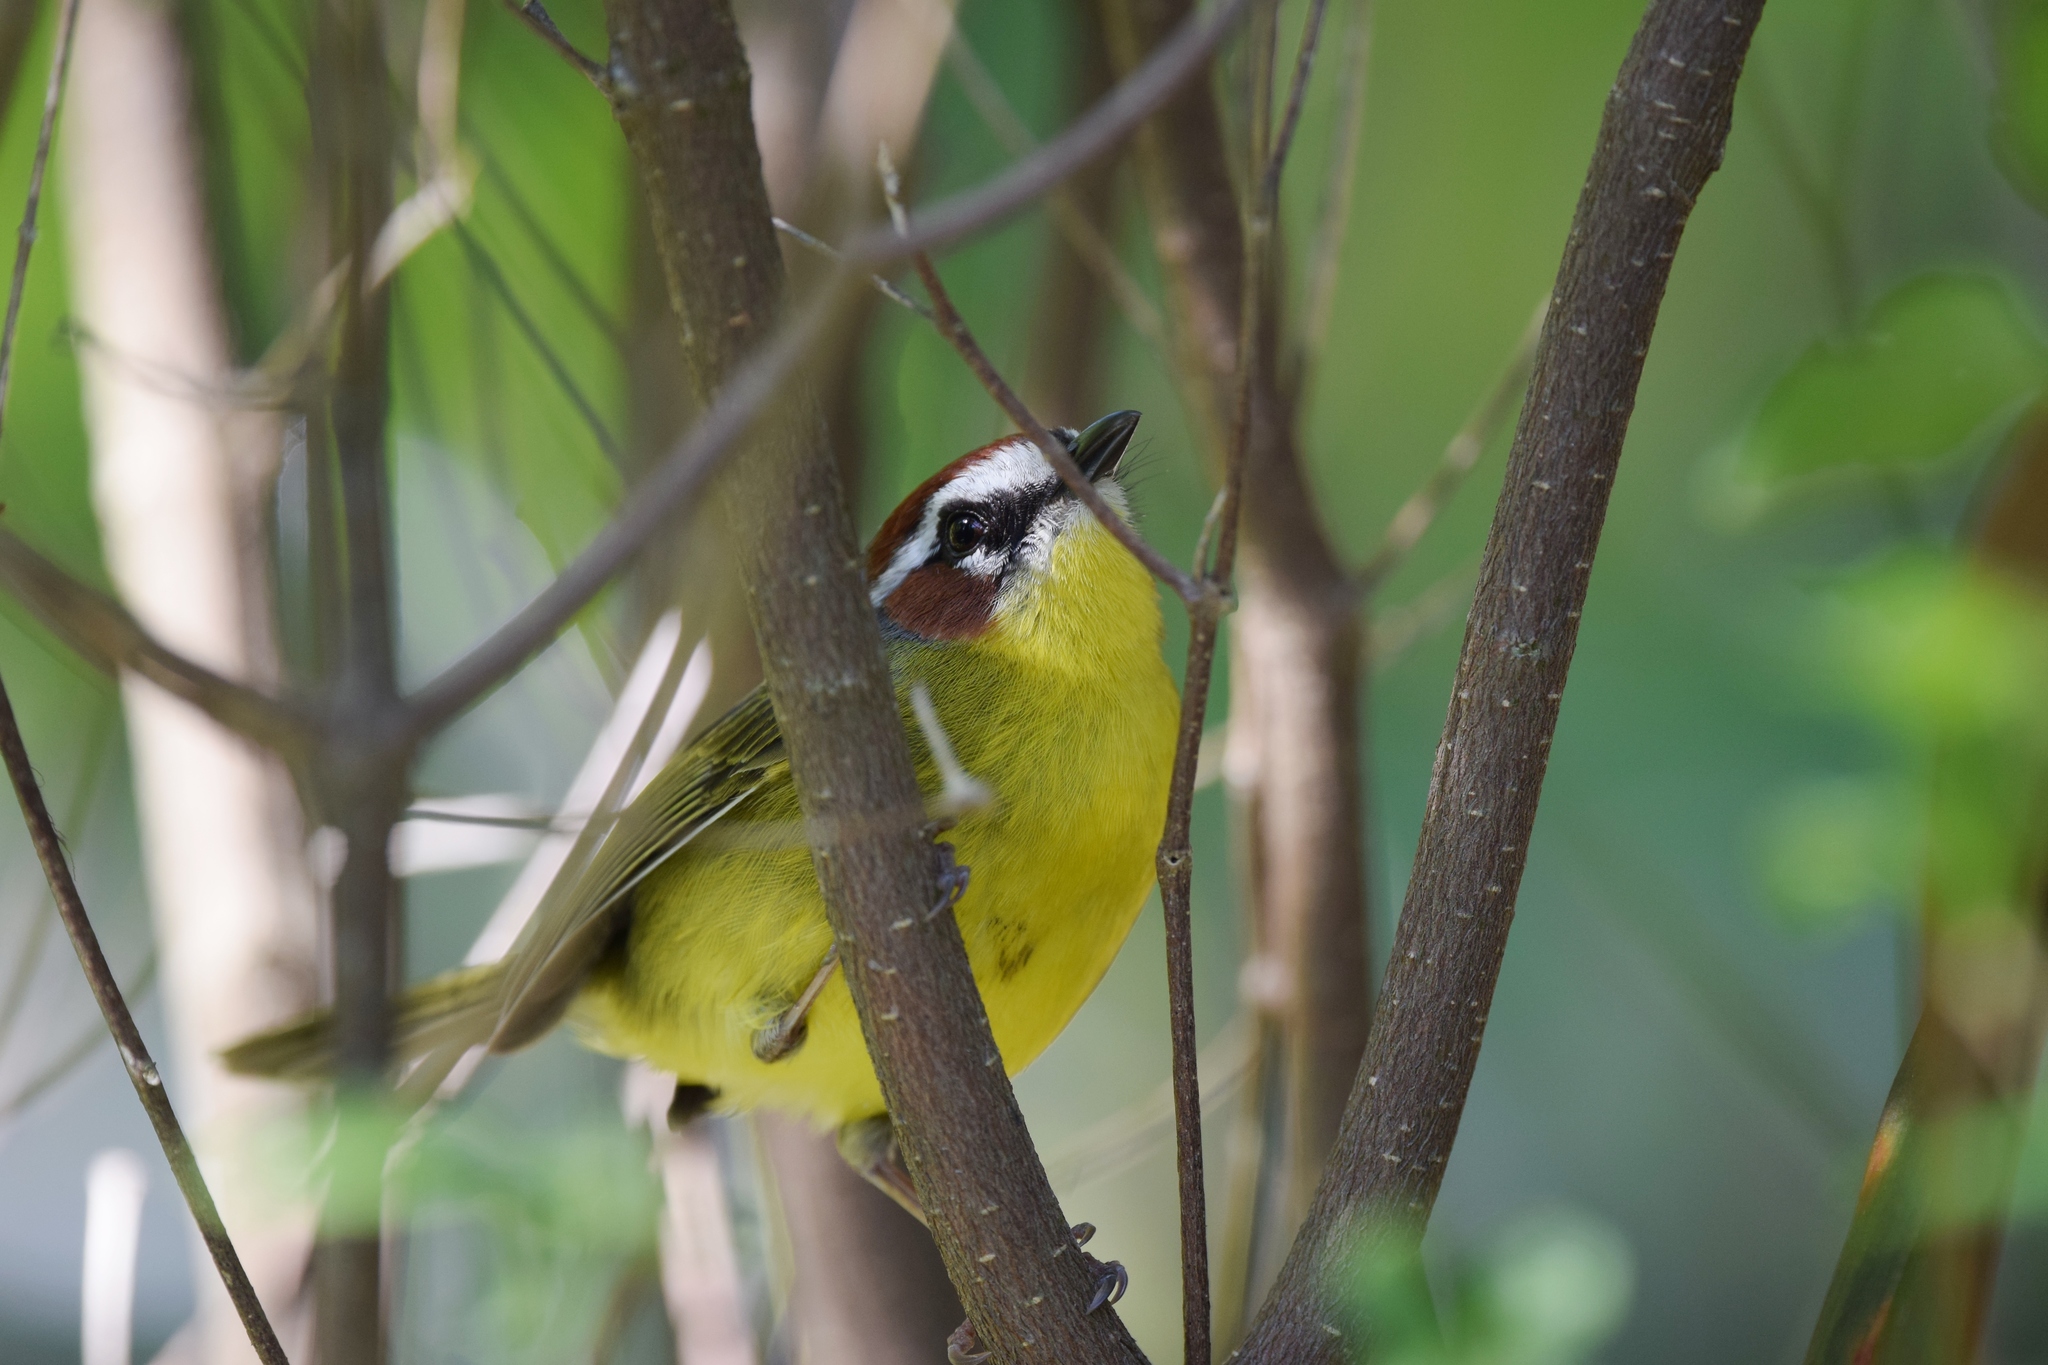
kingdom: Animalia
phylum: Chordata
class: Aves
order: Passeriformes
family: Parulidae
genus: Basileuterus
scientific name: Basileuterus rufifrons
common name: Rufous-capped warbler
